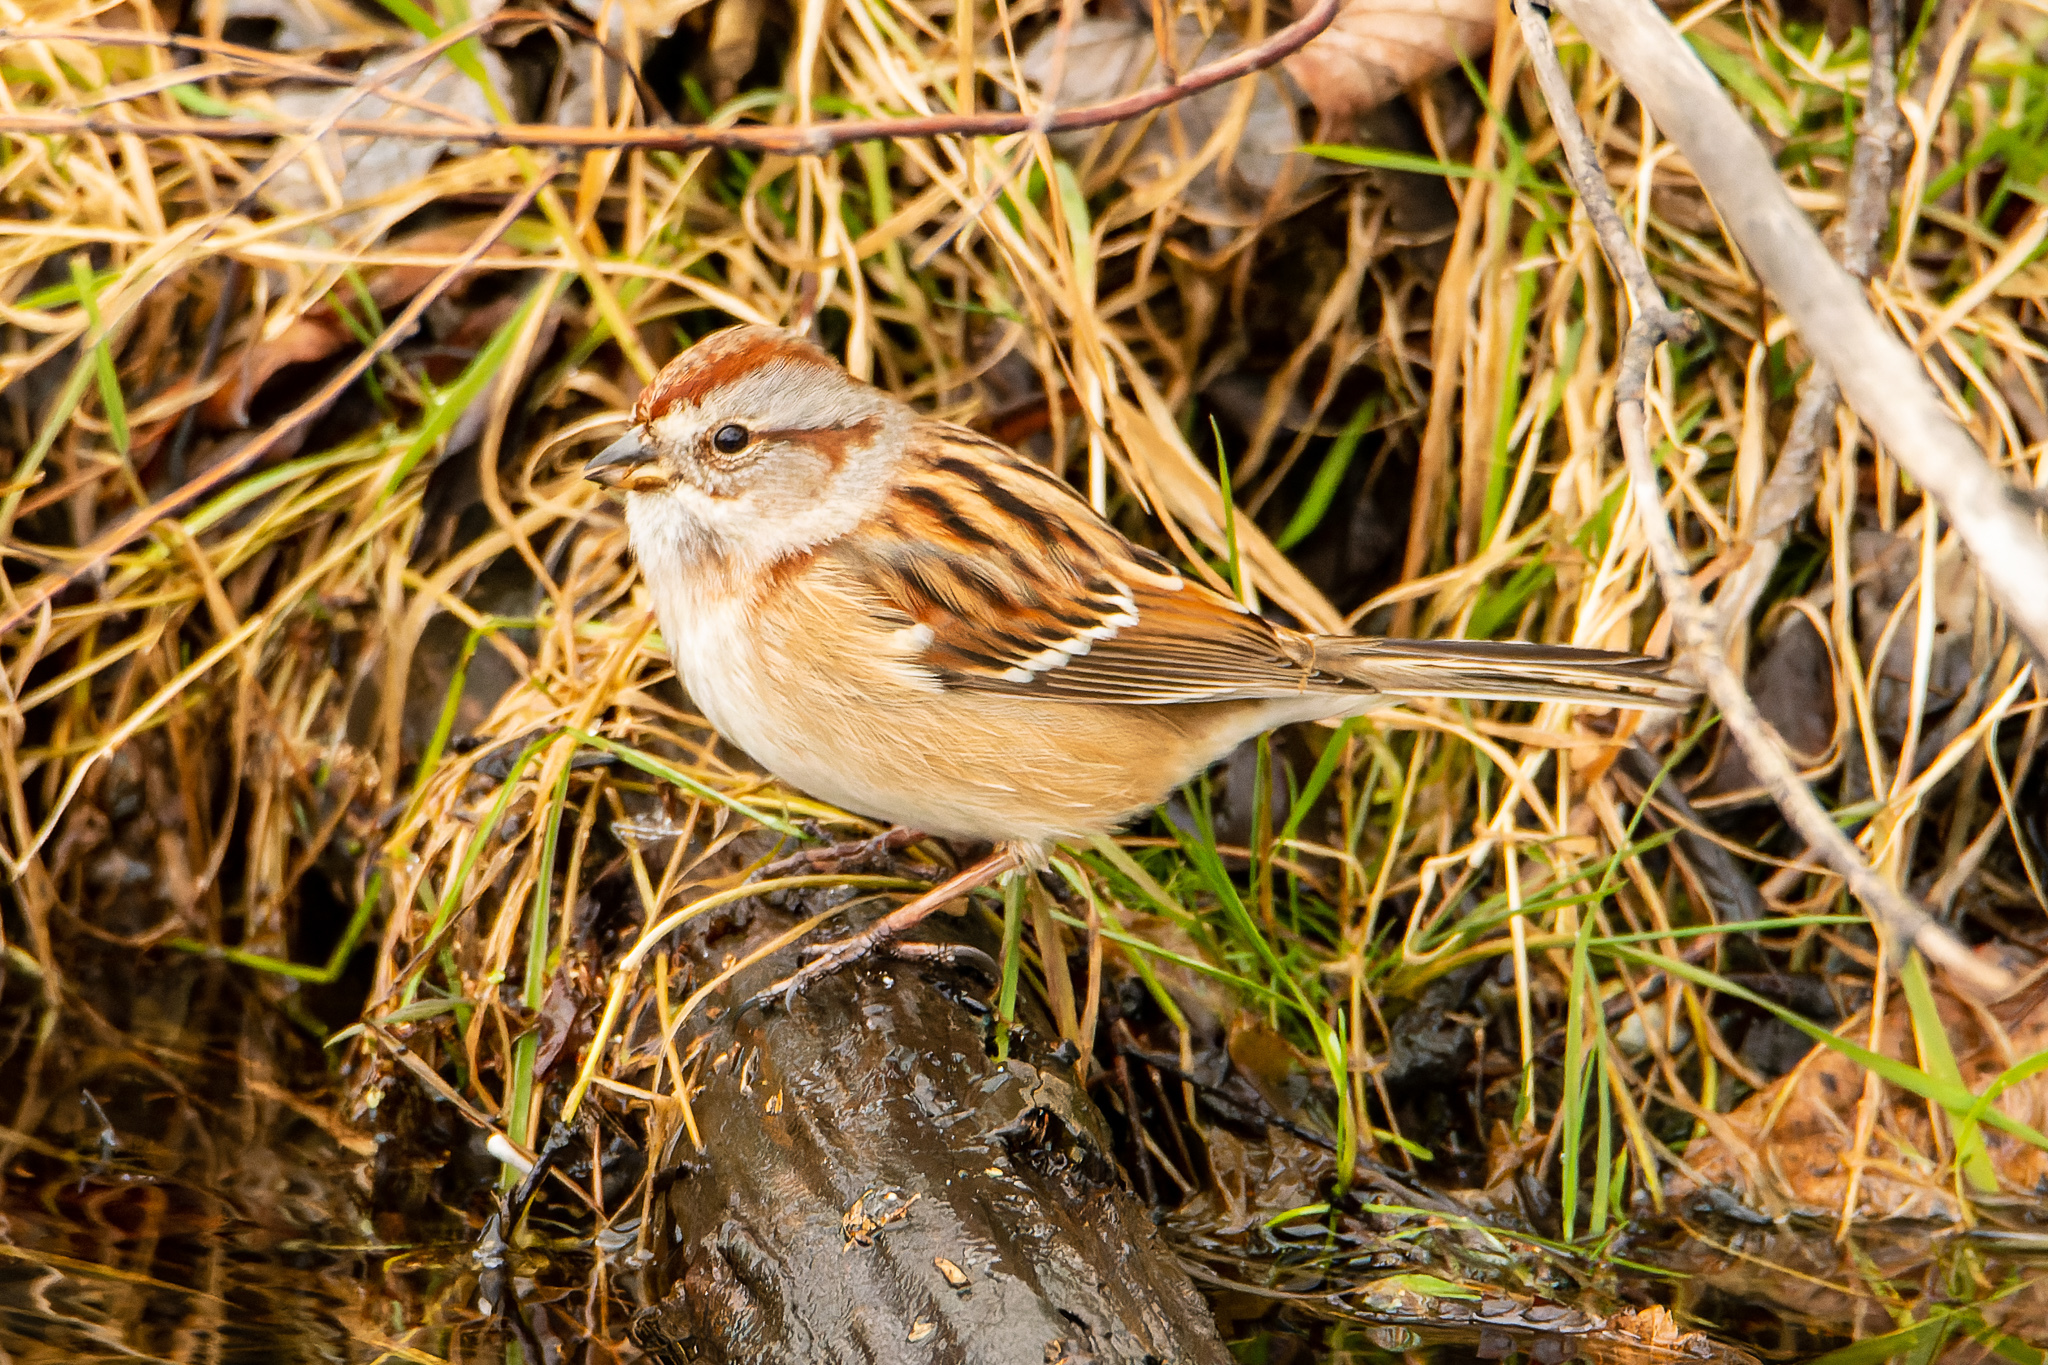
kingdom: Animalia
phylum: Chordata
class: Aves
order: Passeriformes
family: Passerellidae
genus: Spizelloides
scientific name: Spizelloides arborea
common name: American tree sparrow
